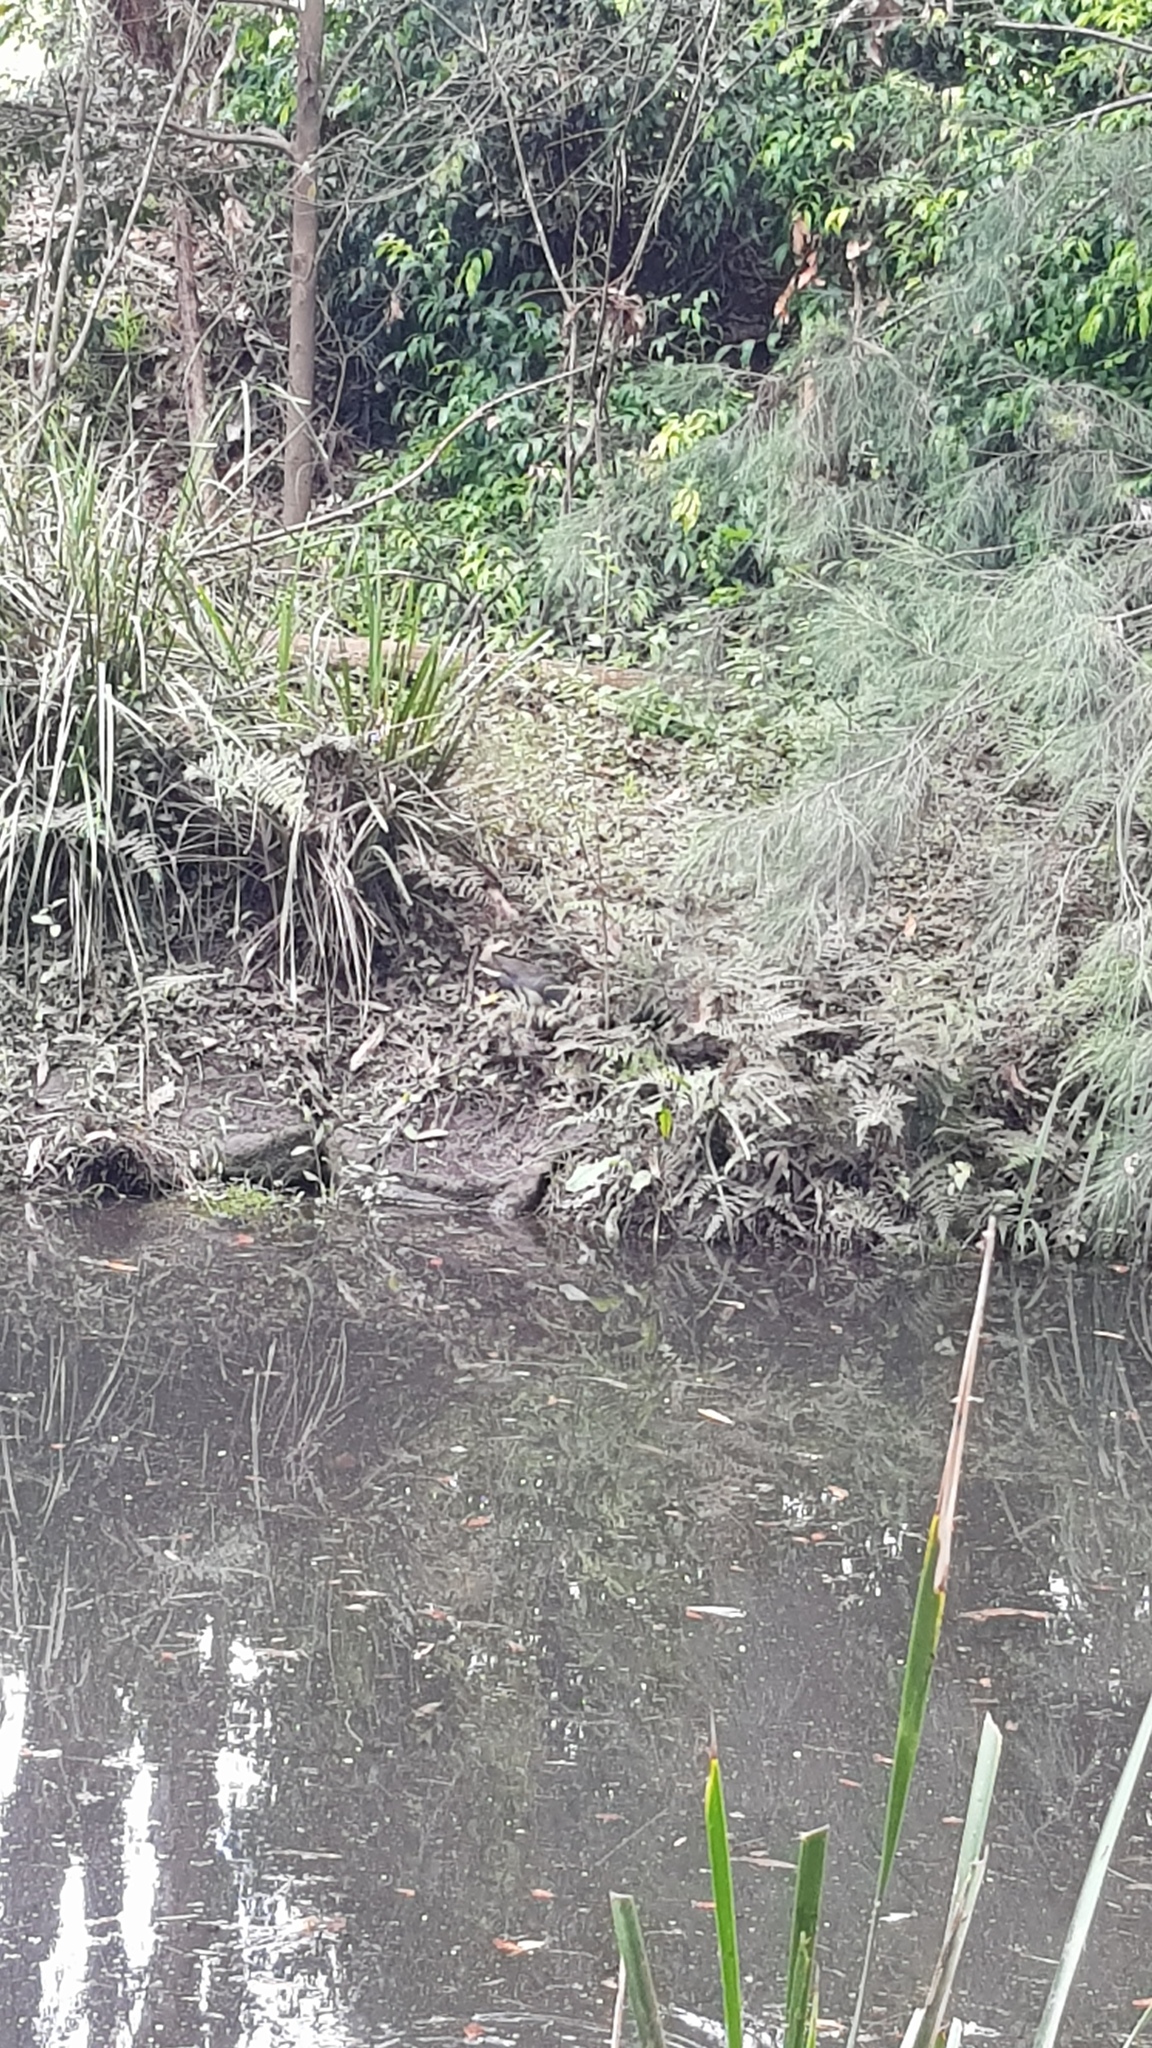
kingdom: Animalia
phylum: Chordata
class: Aves
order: Gruiformes
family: Rallidae
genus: Gallinula
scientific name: Gallinula tenebrosa
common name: Dusky moorhen
